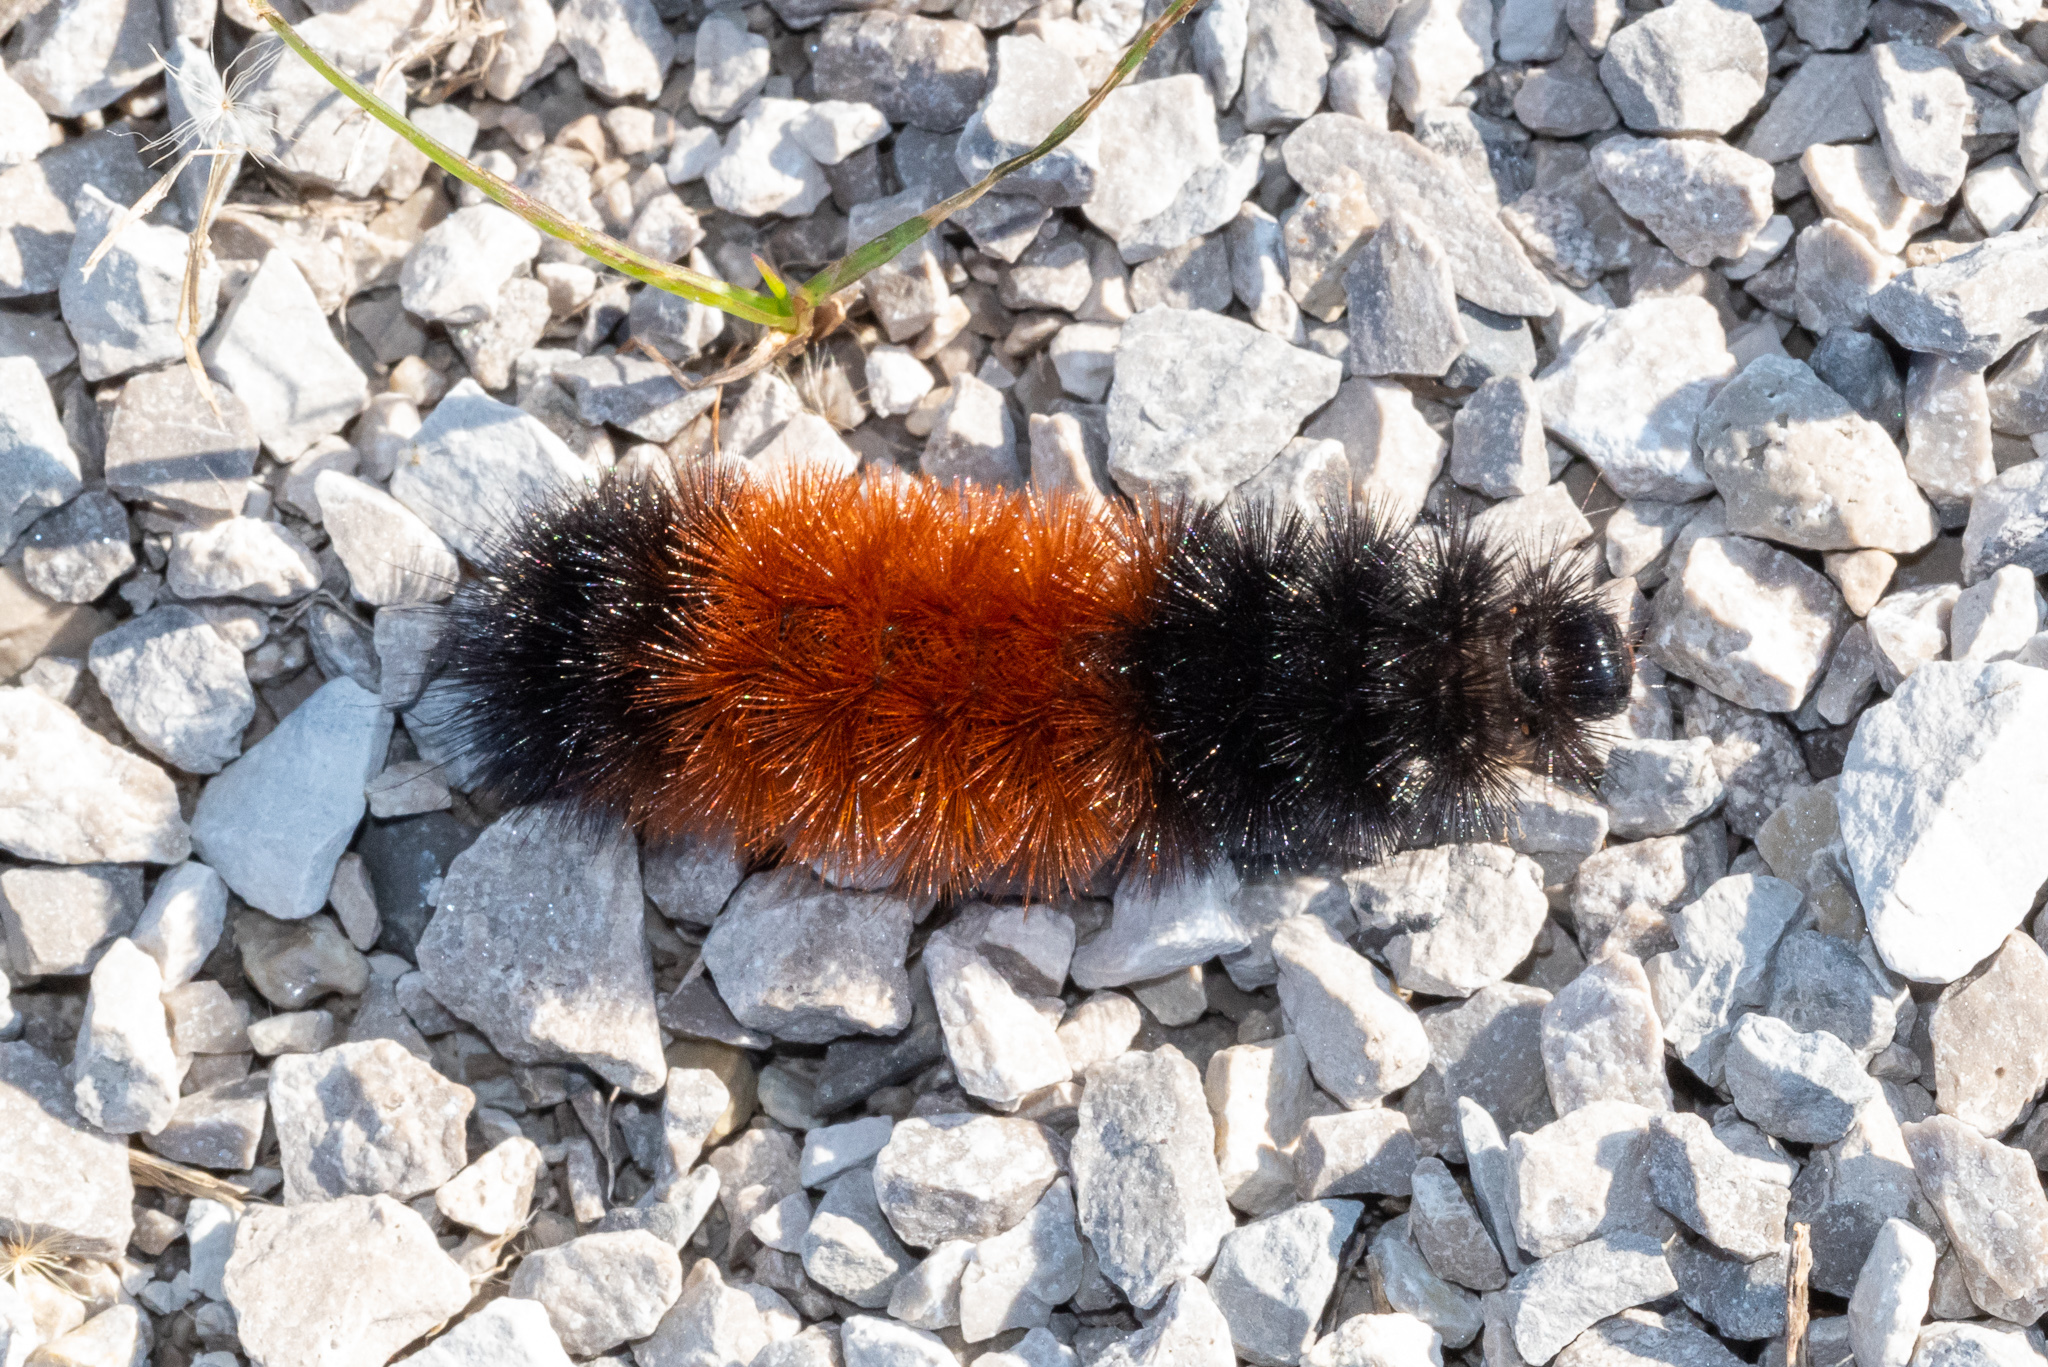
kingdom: Animalia
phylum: Arthropoda
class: Insecta
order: Lepidoptera
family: Erebidae
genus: Pyrrharctia
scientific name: Pyrrharctia isabella
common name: Isabella tiger moth
